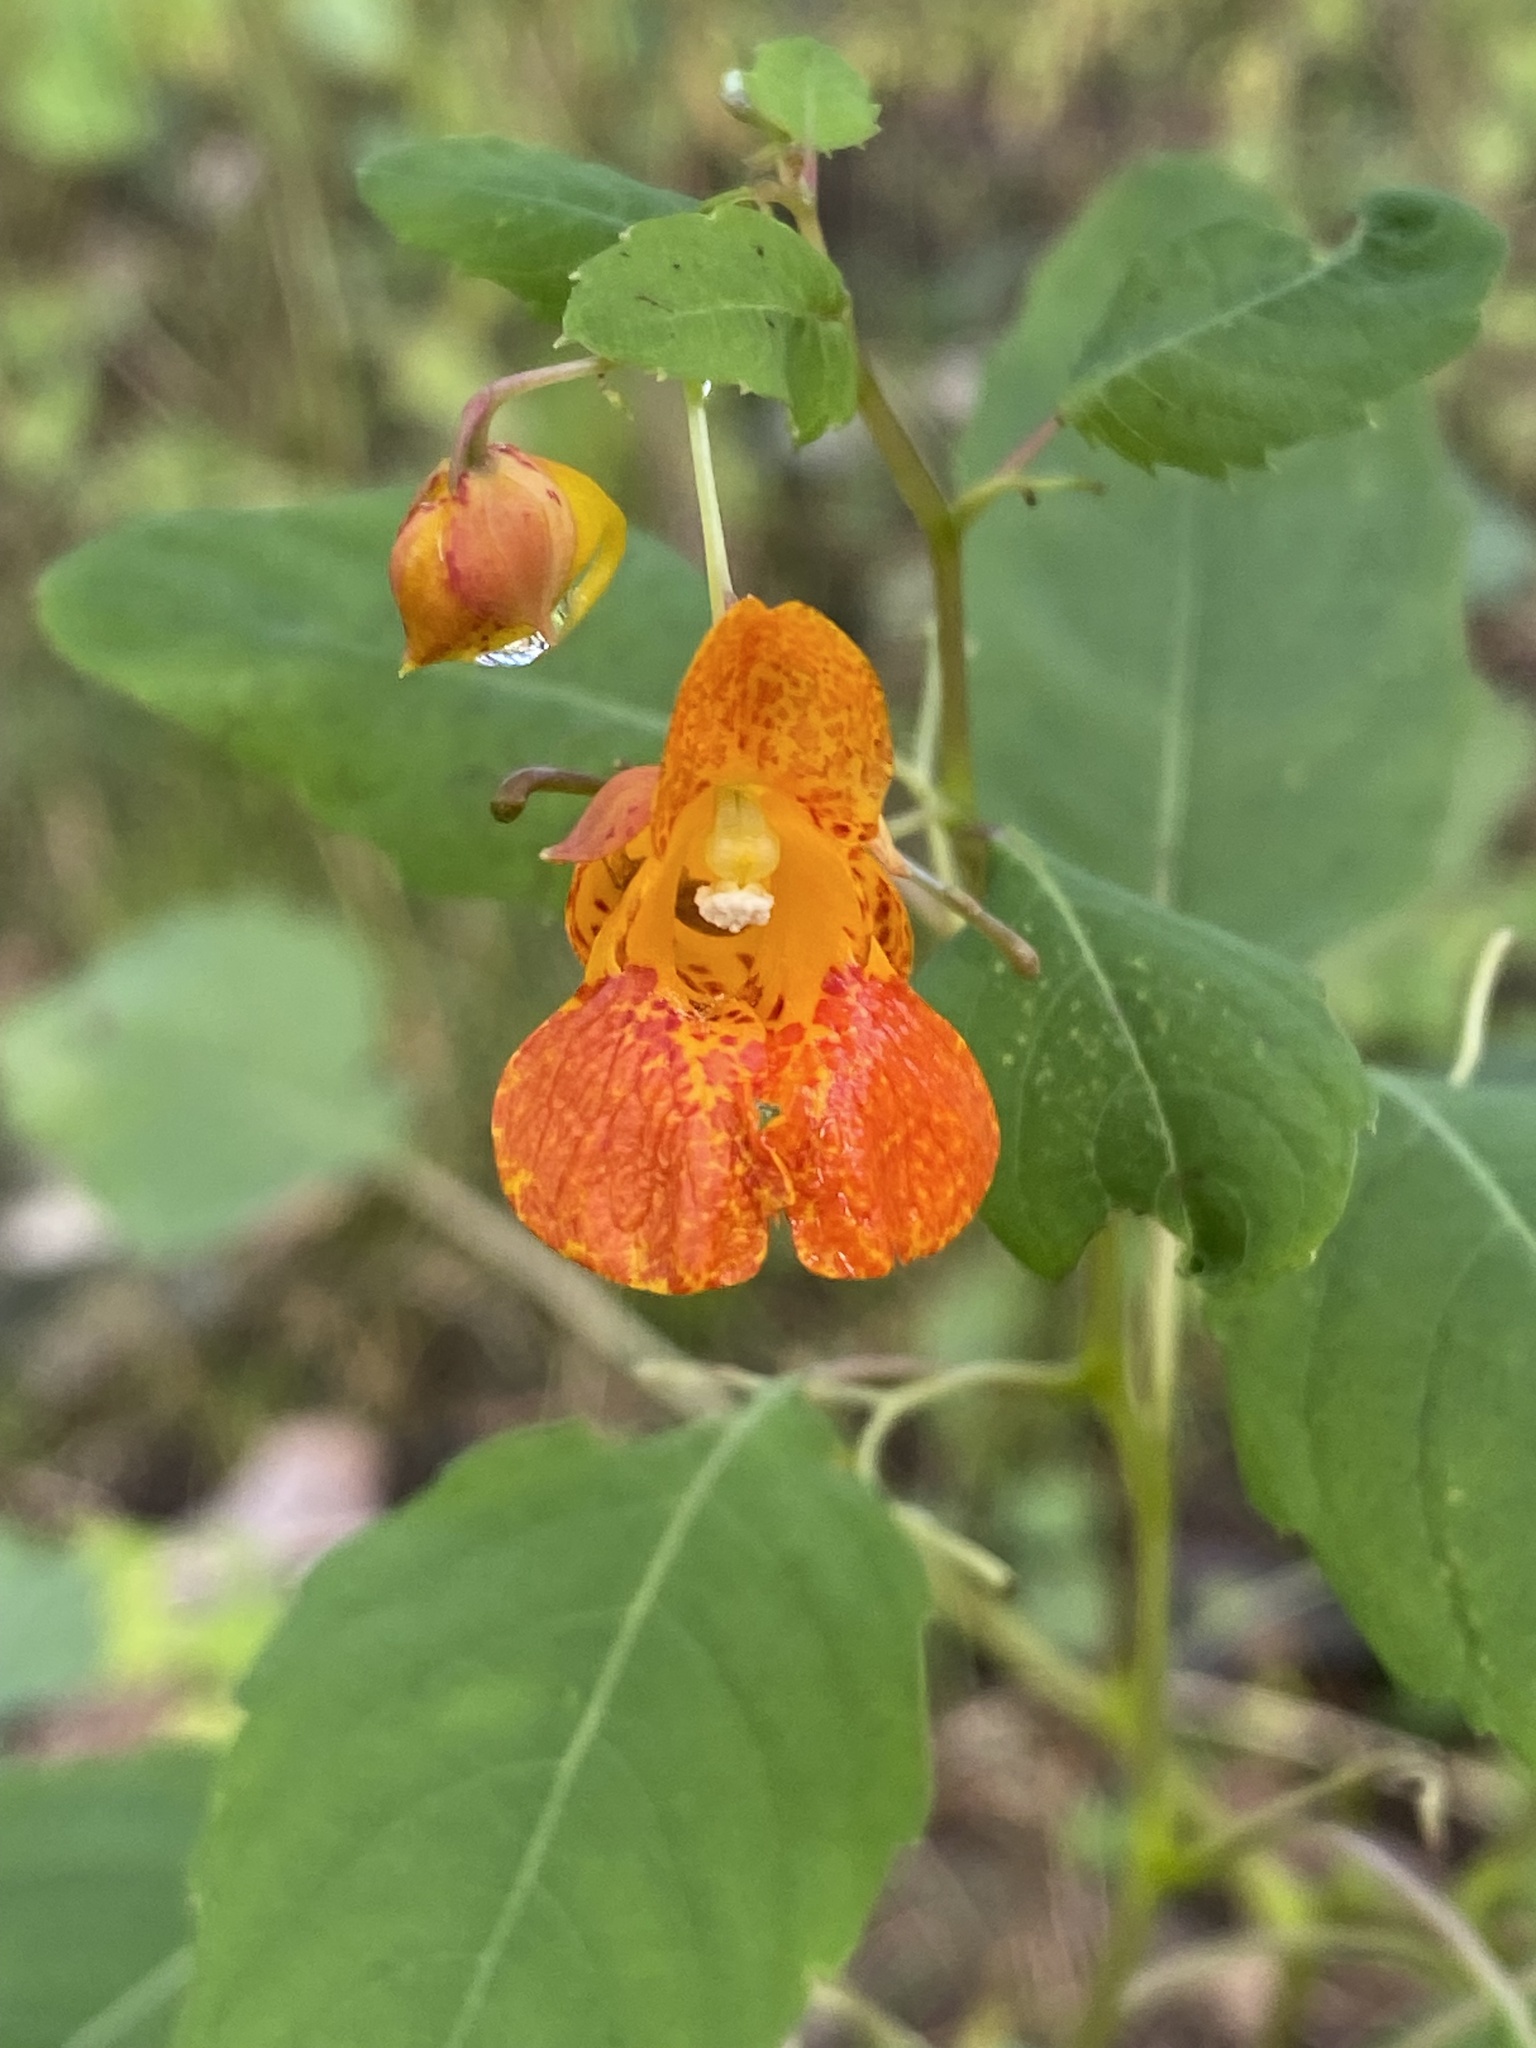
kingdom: Plantae
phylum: Tracheophyta
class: Magnoliopsida
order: Ericales
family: Balsaminaceae
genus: Impatiens
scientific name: Impatiens capensis
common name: Orange balsam
